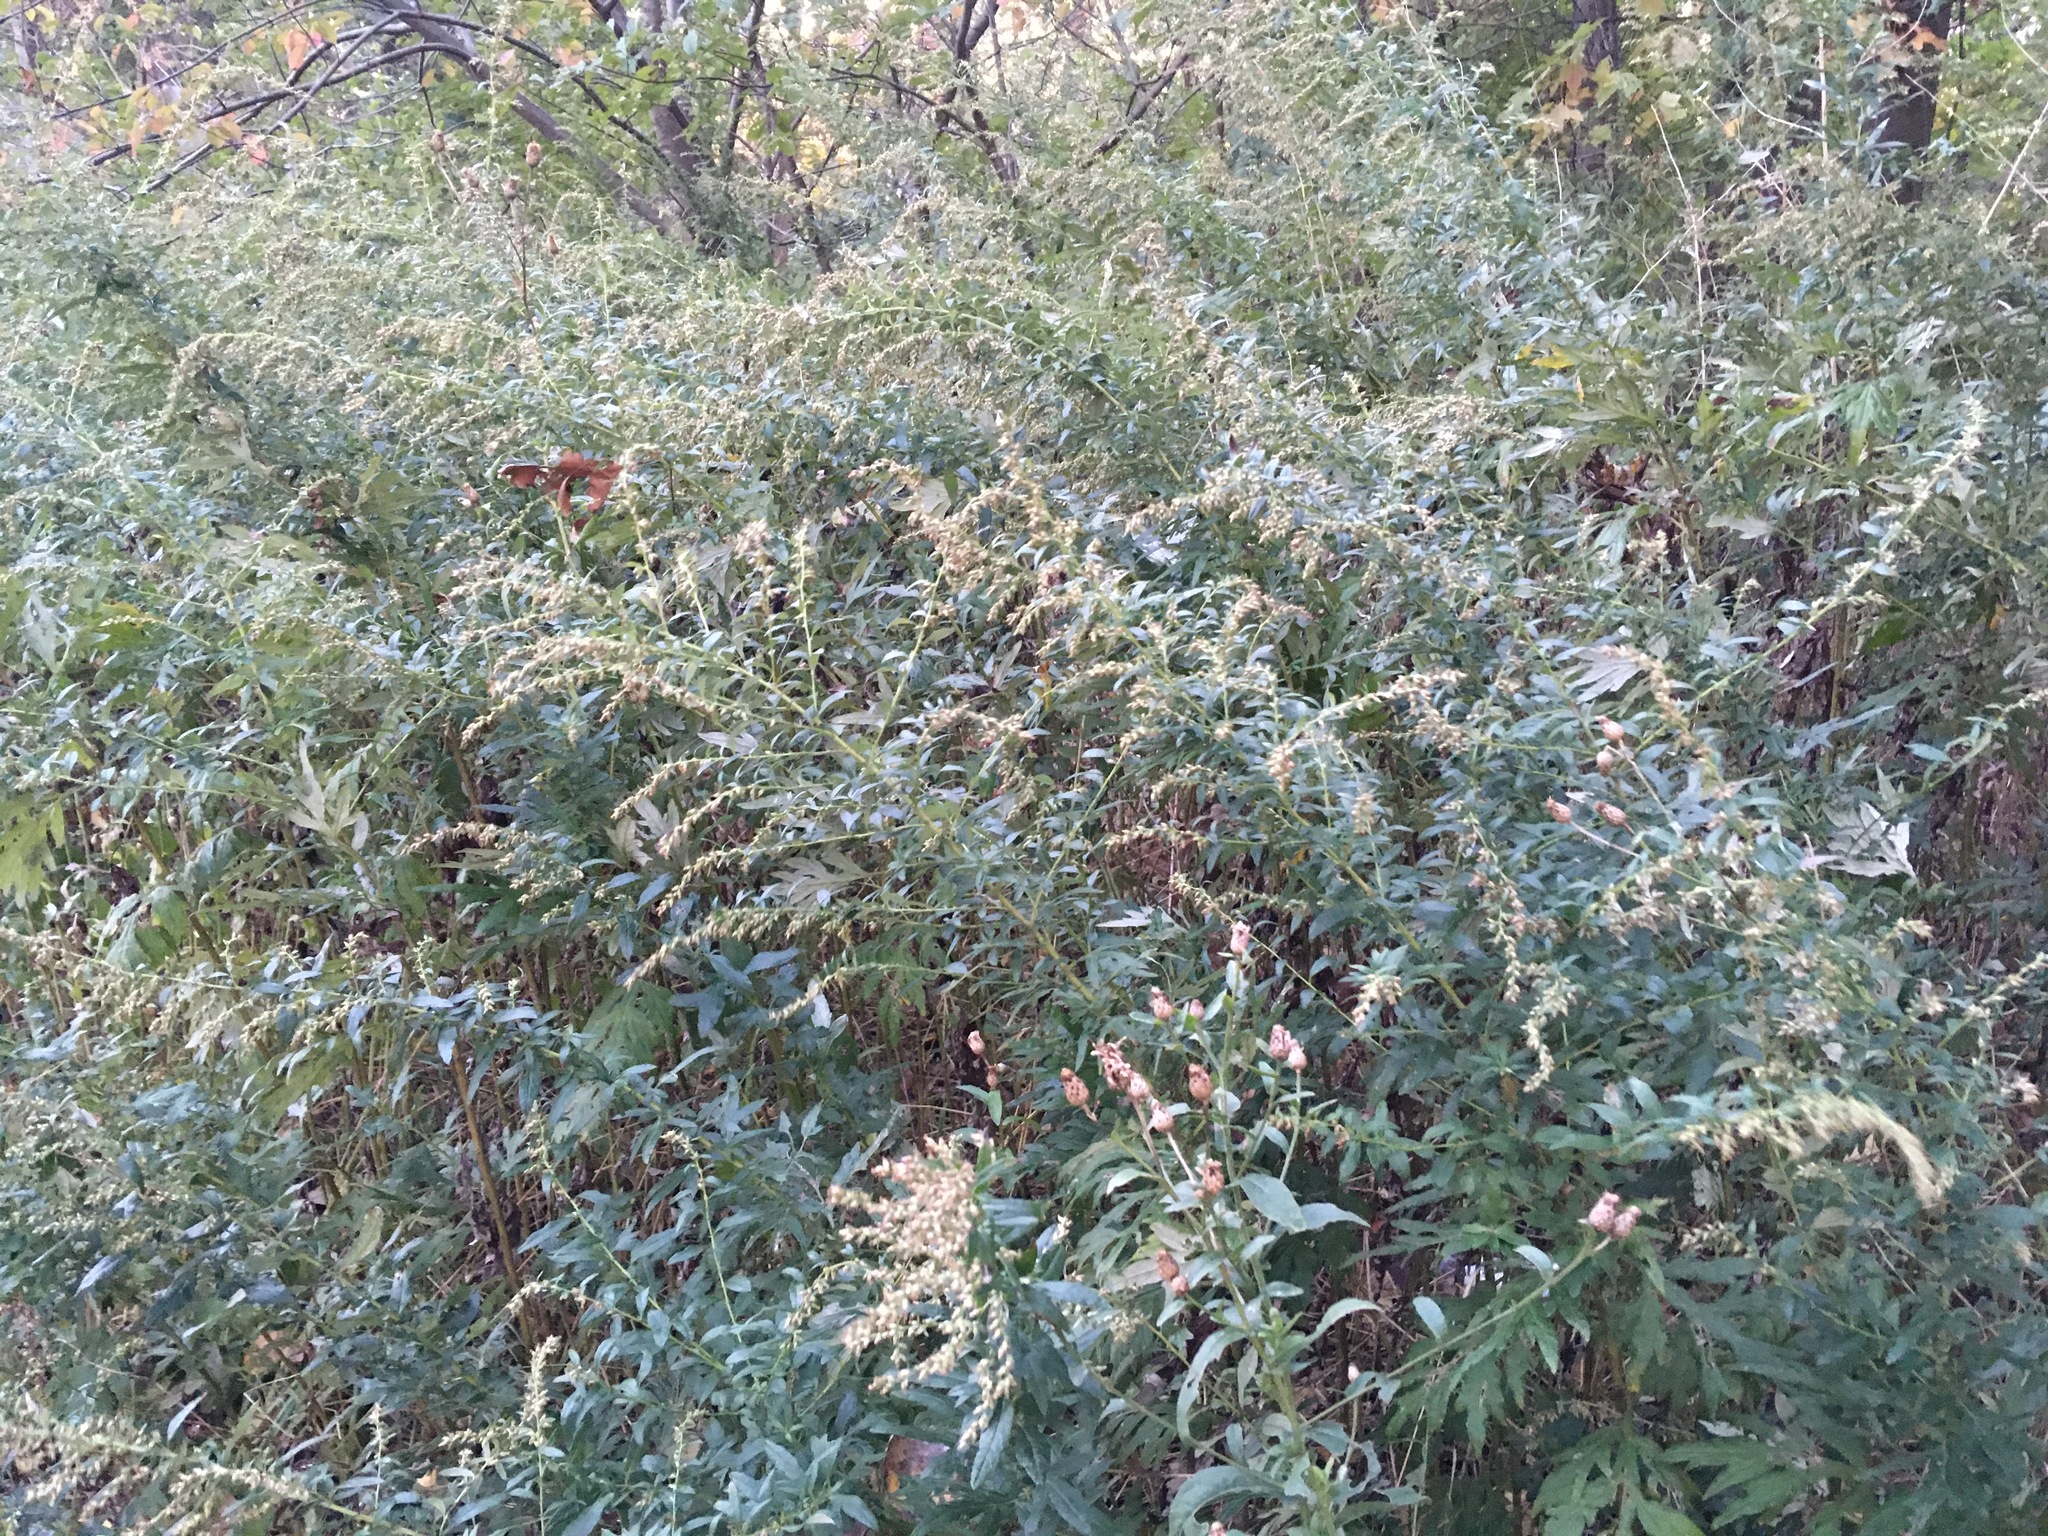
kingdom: Plantae
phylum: Tracheophyta
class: Magnoliopsida
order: Asterales
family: Asteraceae
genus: Artemisia
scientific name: Artemisia vulgaris
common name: Mugwort
